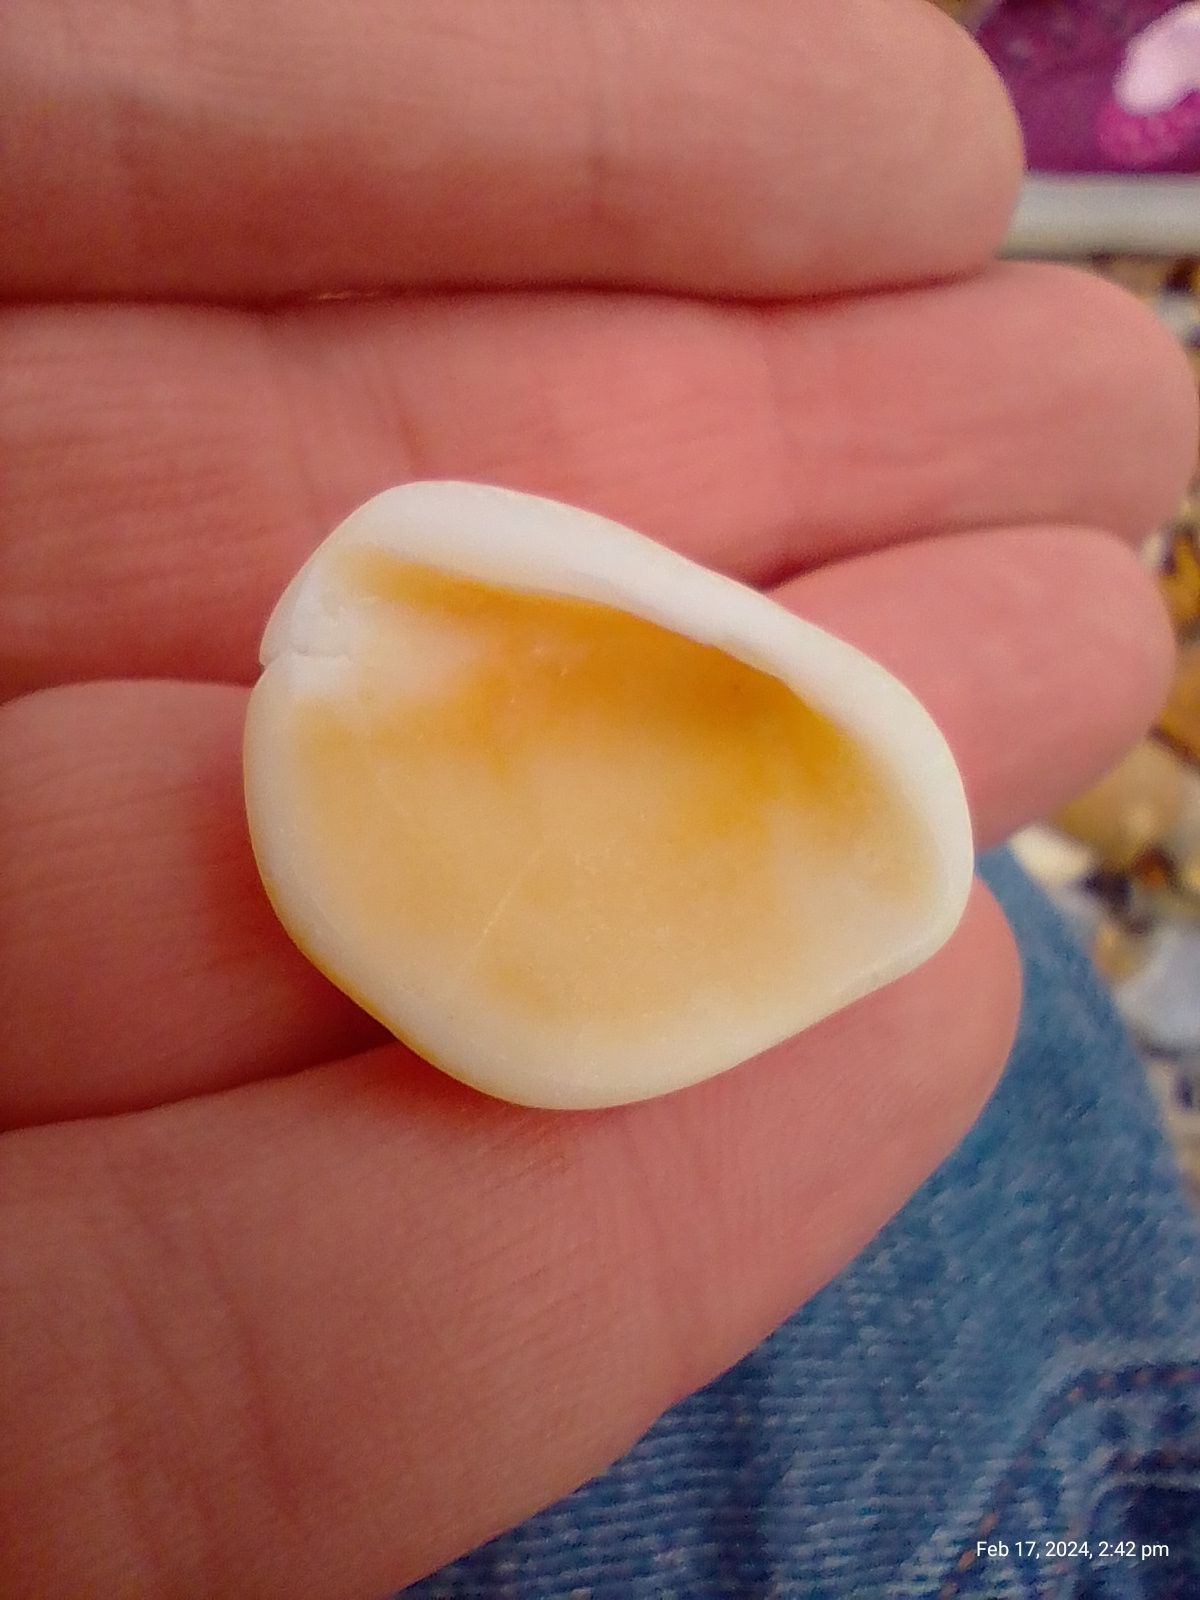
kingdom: Animalia
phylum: Mollusca
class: Bivalvia
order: Arcida
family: Glycymerididae
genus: Glycymeris
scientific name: Glycymeris glycymeris
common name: Dog-cockle
